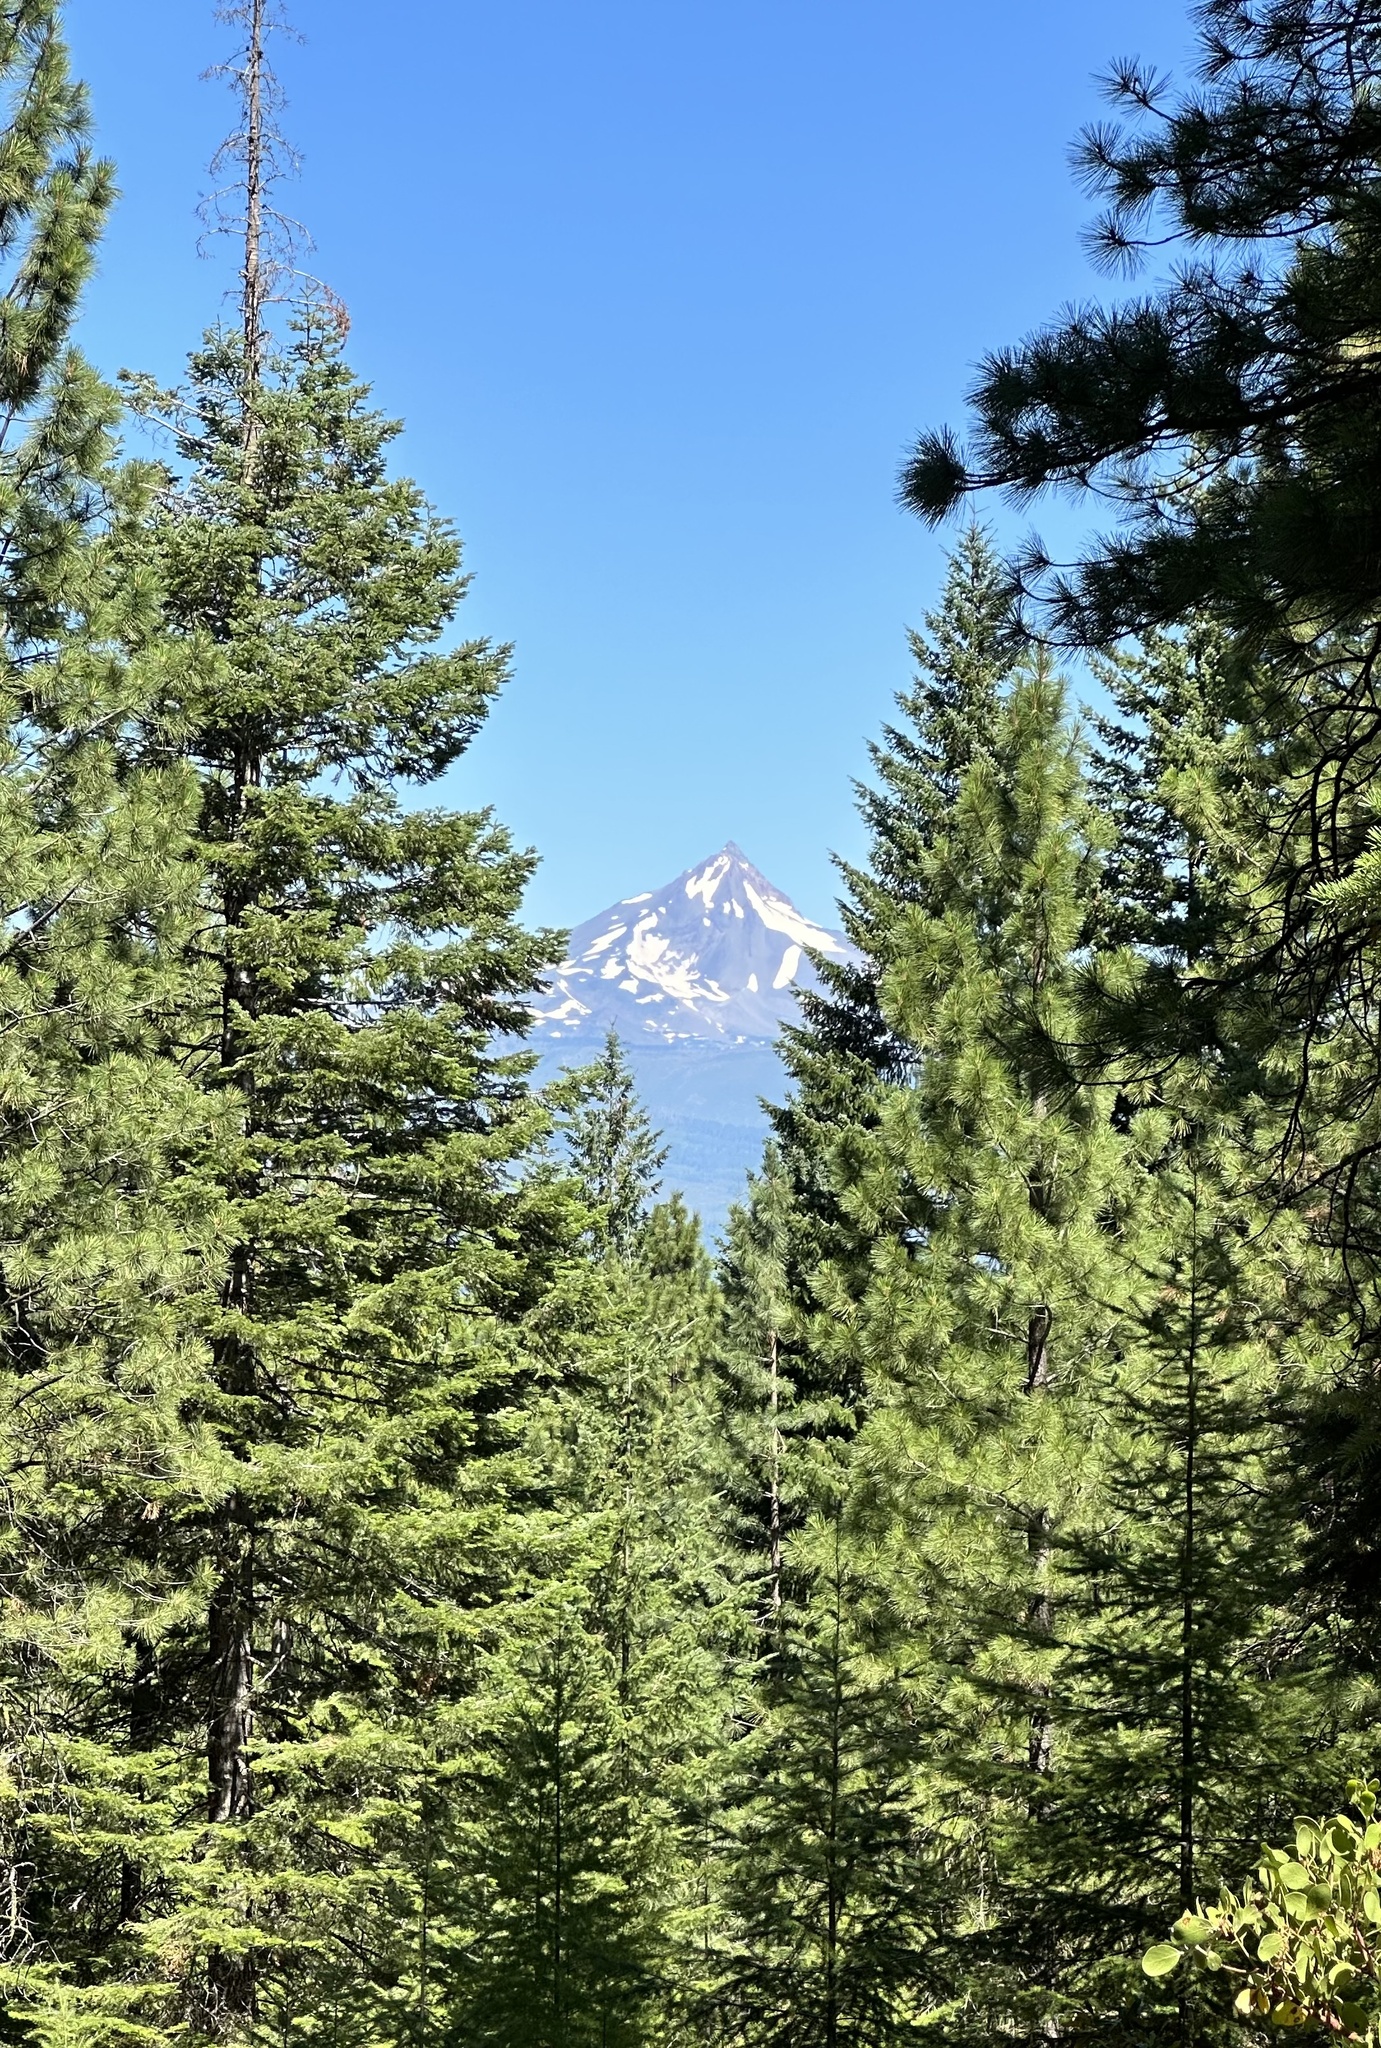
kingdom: Fungi
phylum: Basidiomycota
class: Agaricomycetes
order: Gloeophyllales
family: Gloeophyllaceae
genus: Neolentinus
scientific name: Neolentinus ponderosus
